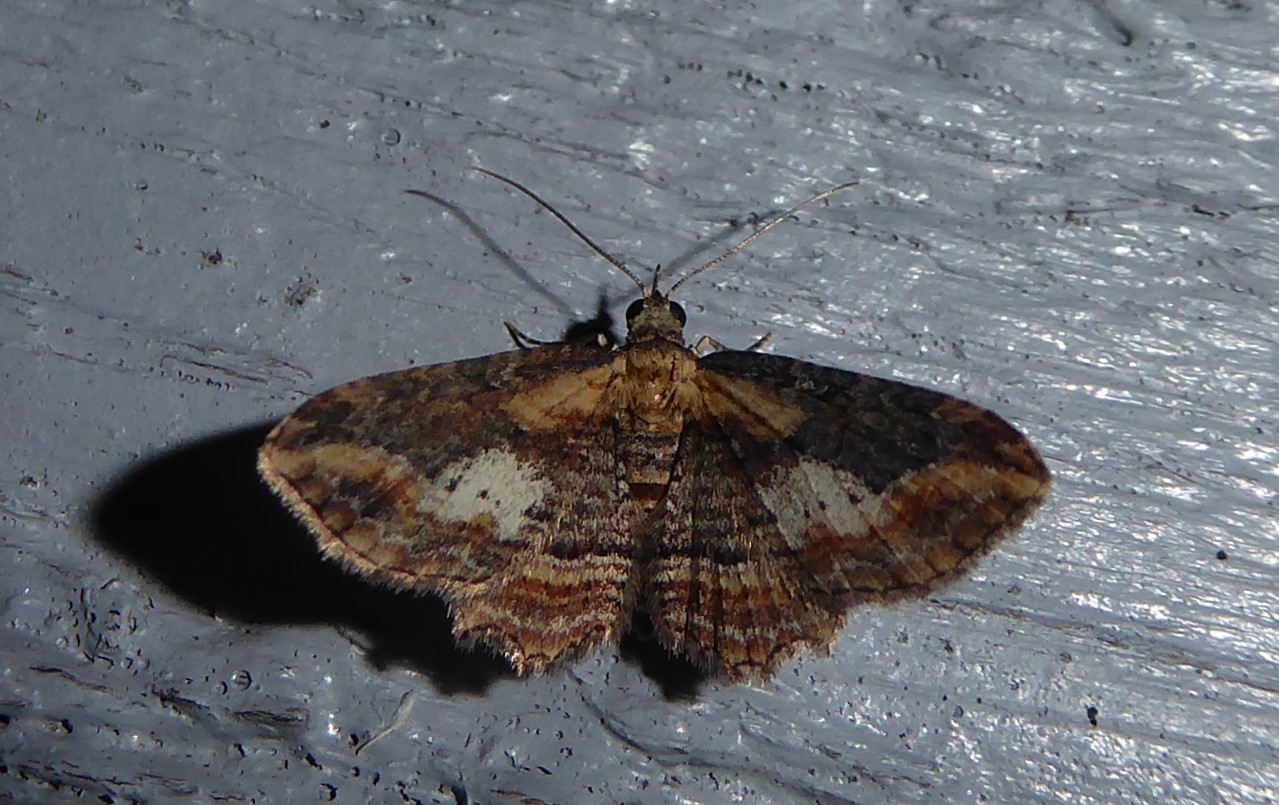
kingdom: Animalia
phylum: Arthropoda
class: Insecta
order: Lepidoptera
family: Geometridae
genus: Chloroclystis
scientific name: Chloroclystis filata
